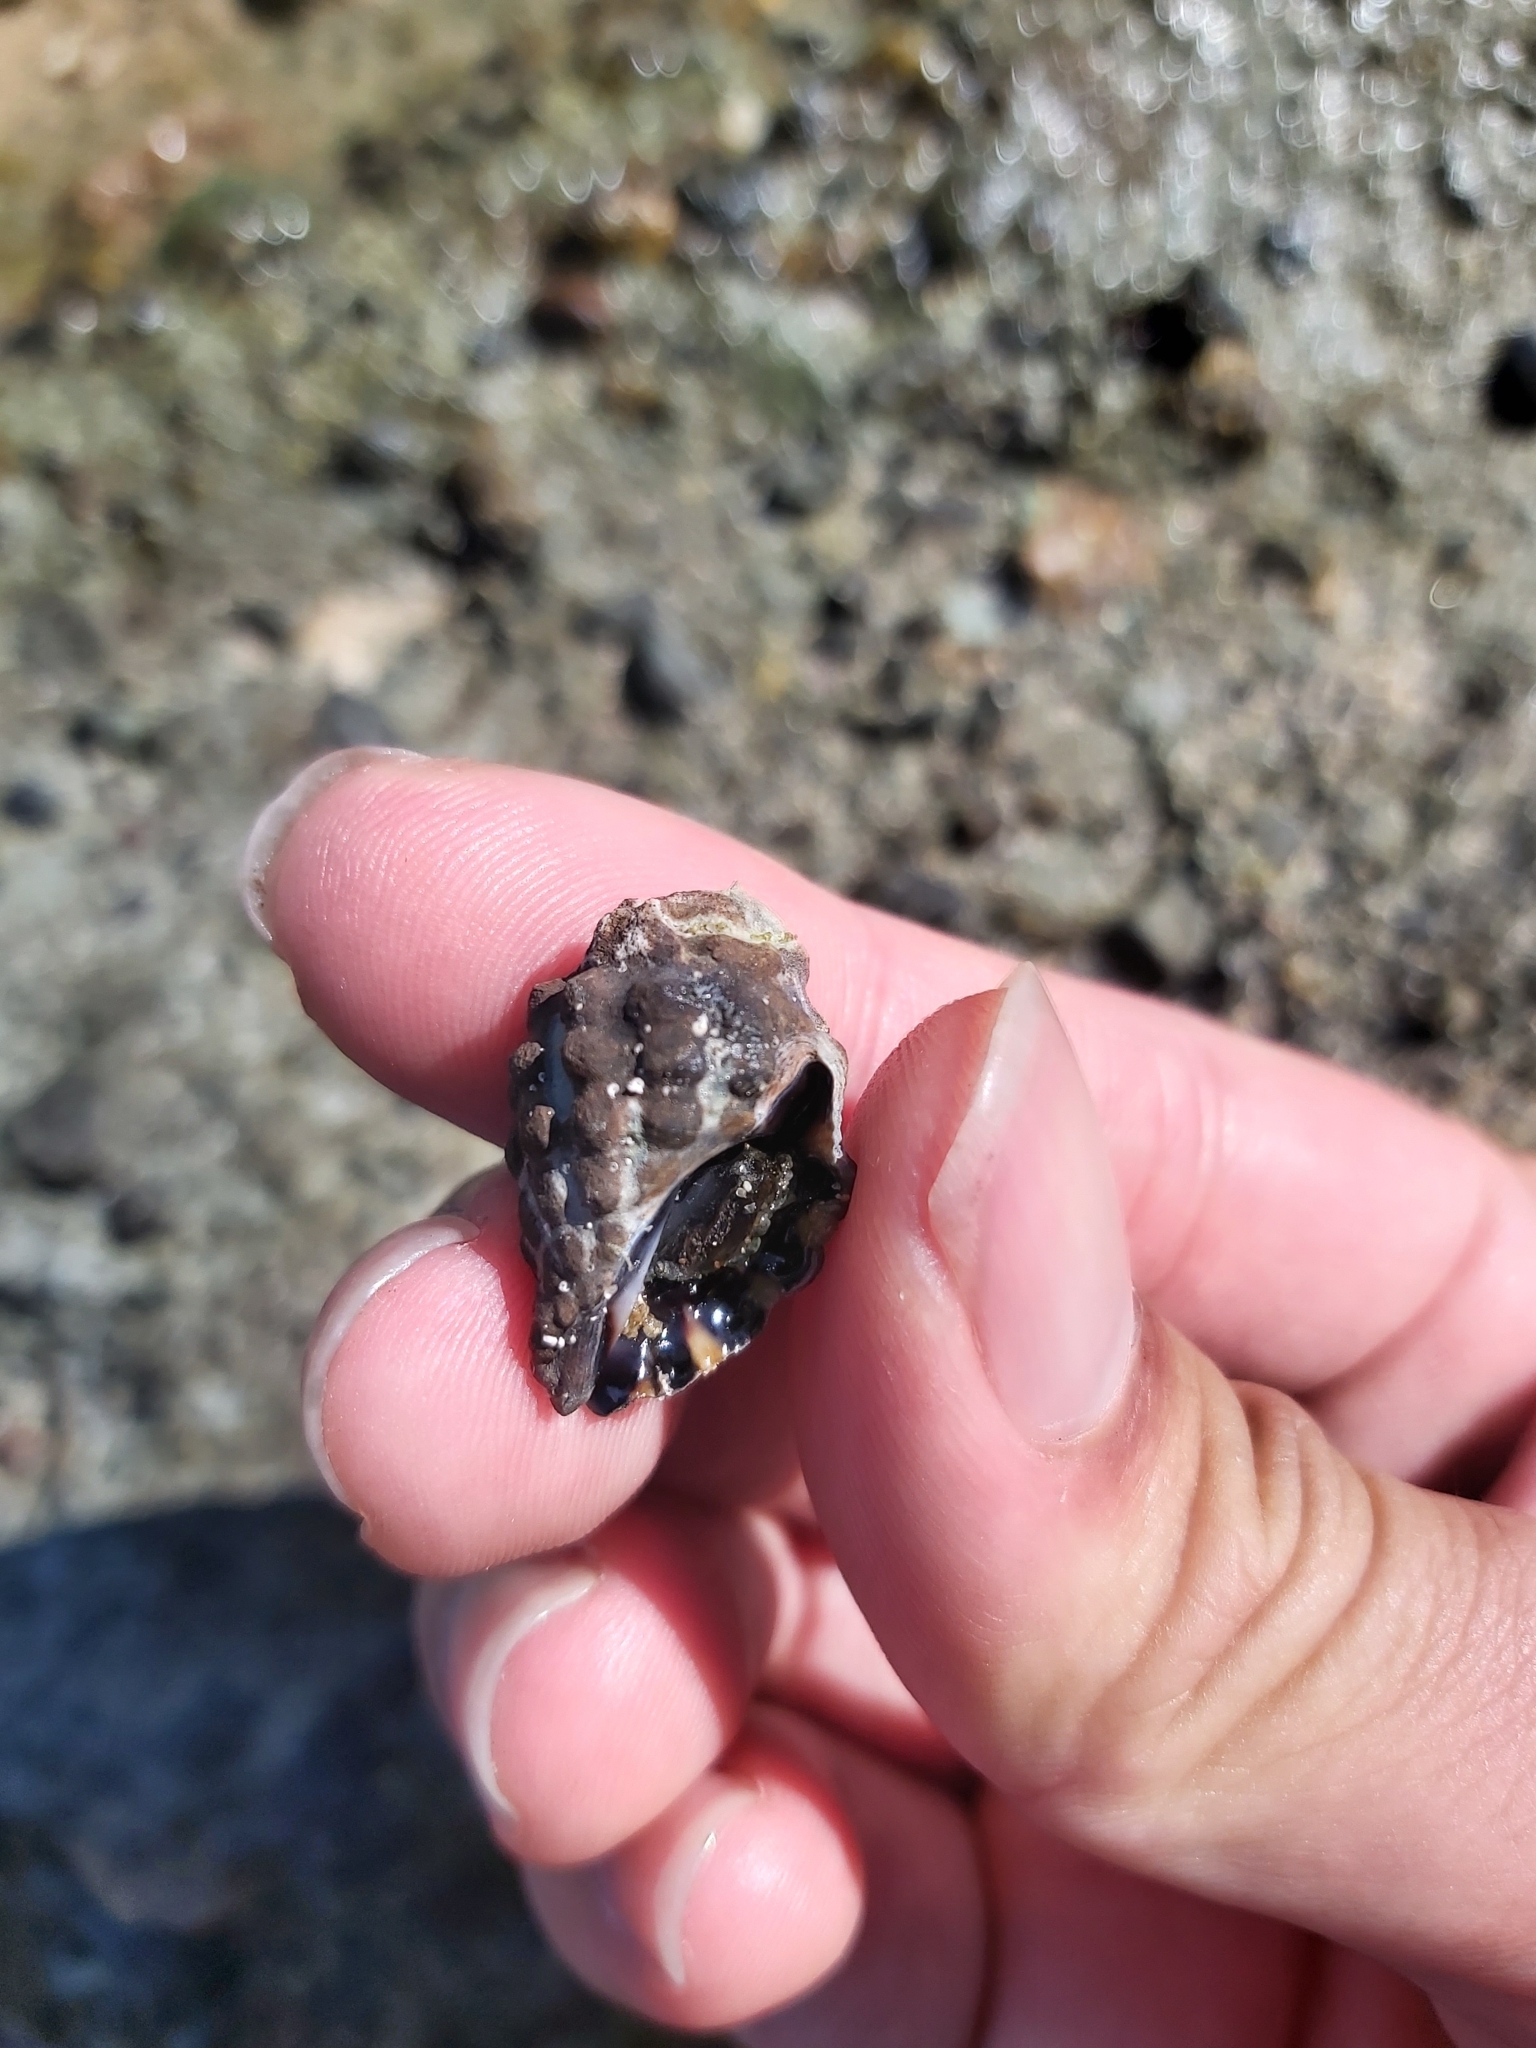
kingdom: Animalia
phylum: Mollusca
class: Gastropoda
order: Neogastropoda
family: Muricidae
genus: Tenguella
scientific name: Tenguella marginalba
